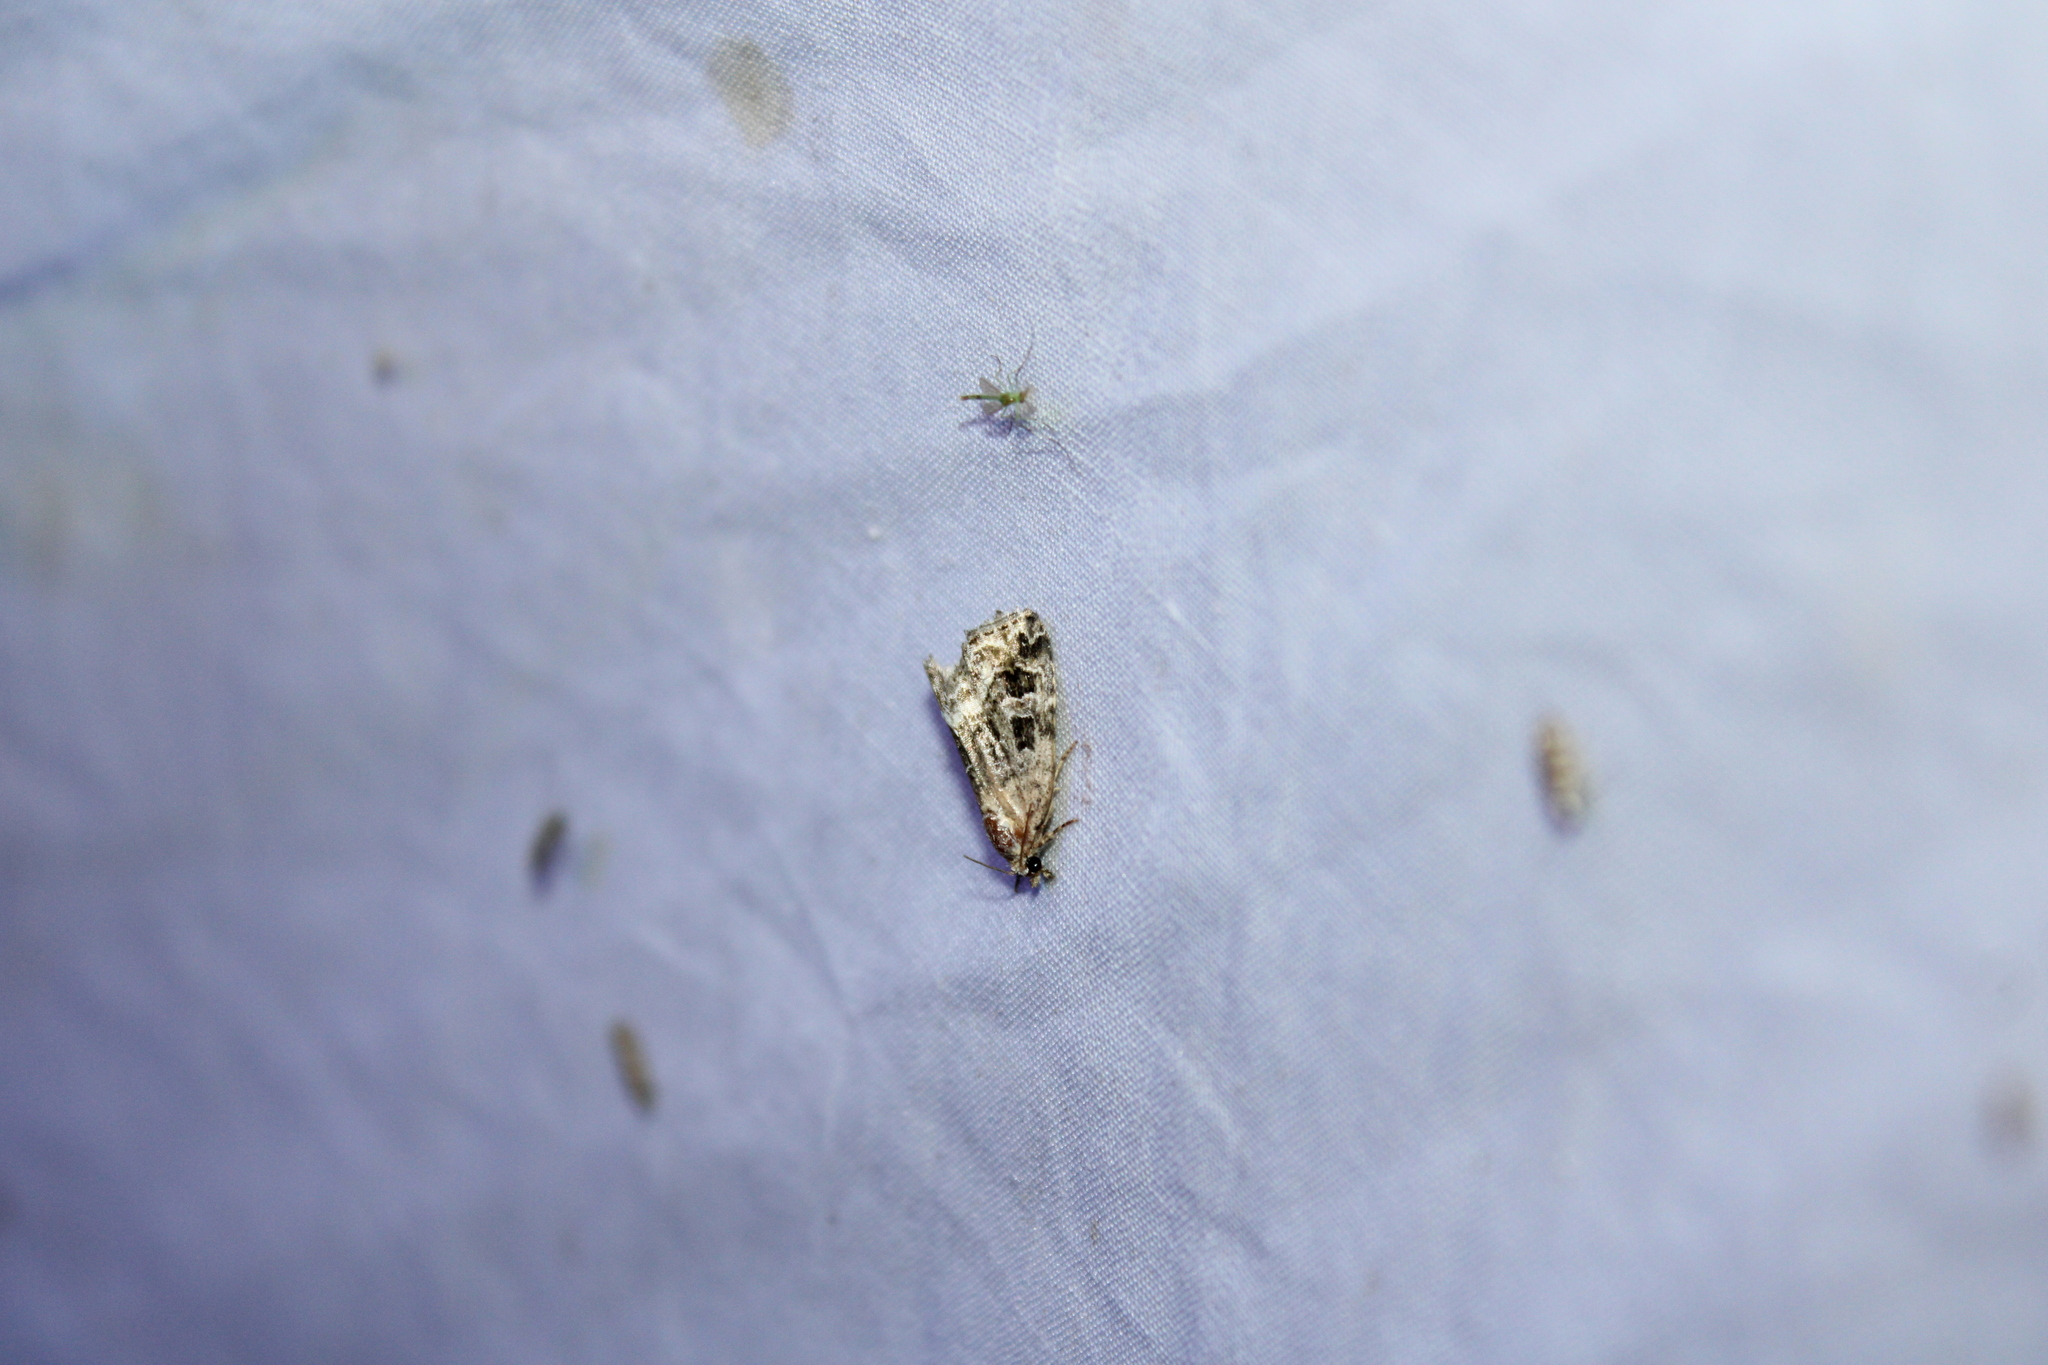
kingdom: Animalia
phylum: Arthropoda
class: Insecta
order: Lepidoptera
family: Noctuidae
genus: Protodeltote
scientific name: Protodeltote muscosula
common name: Large mossy glyph
